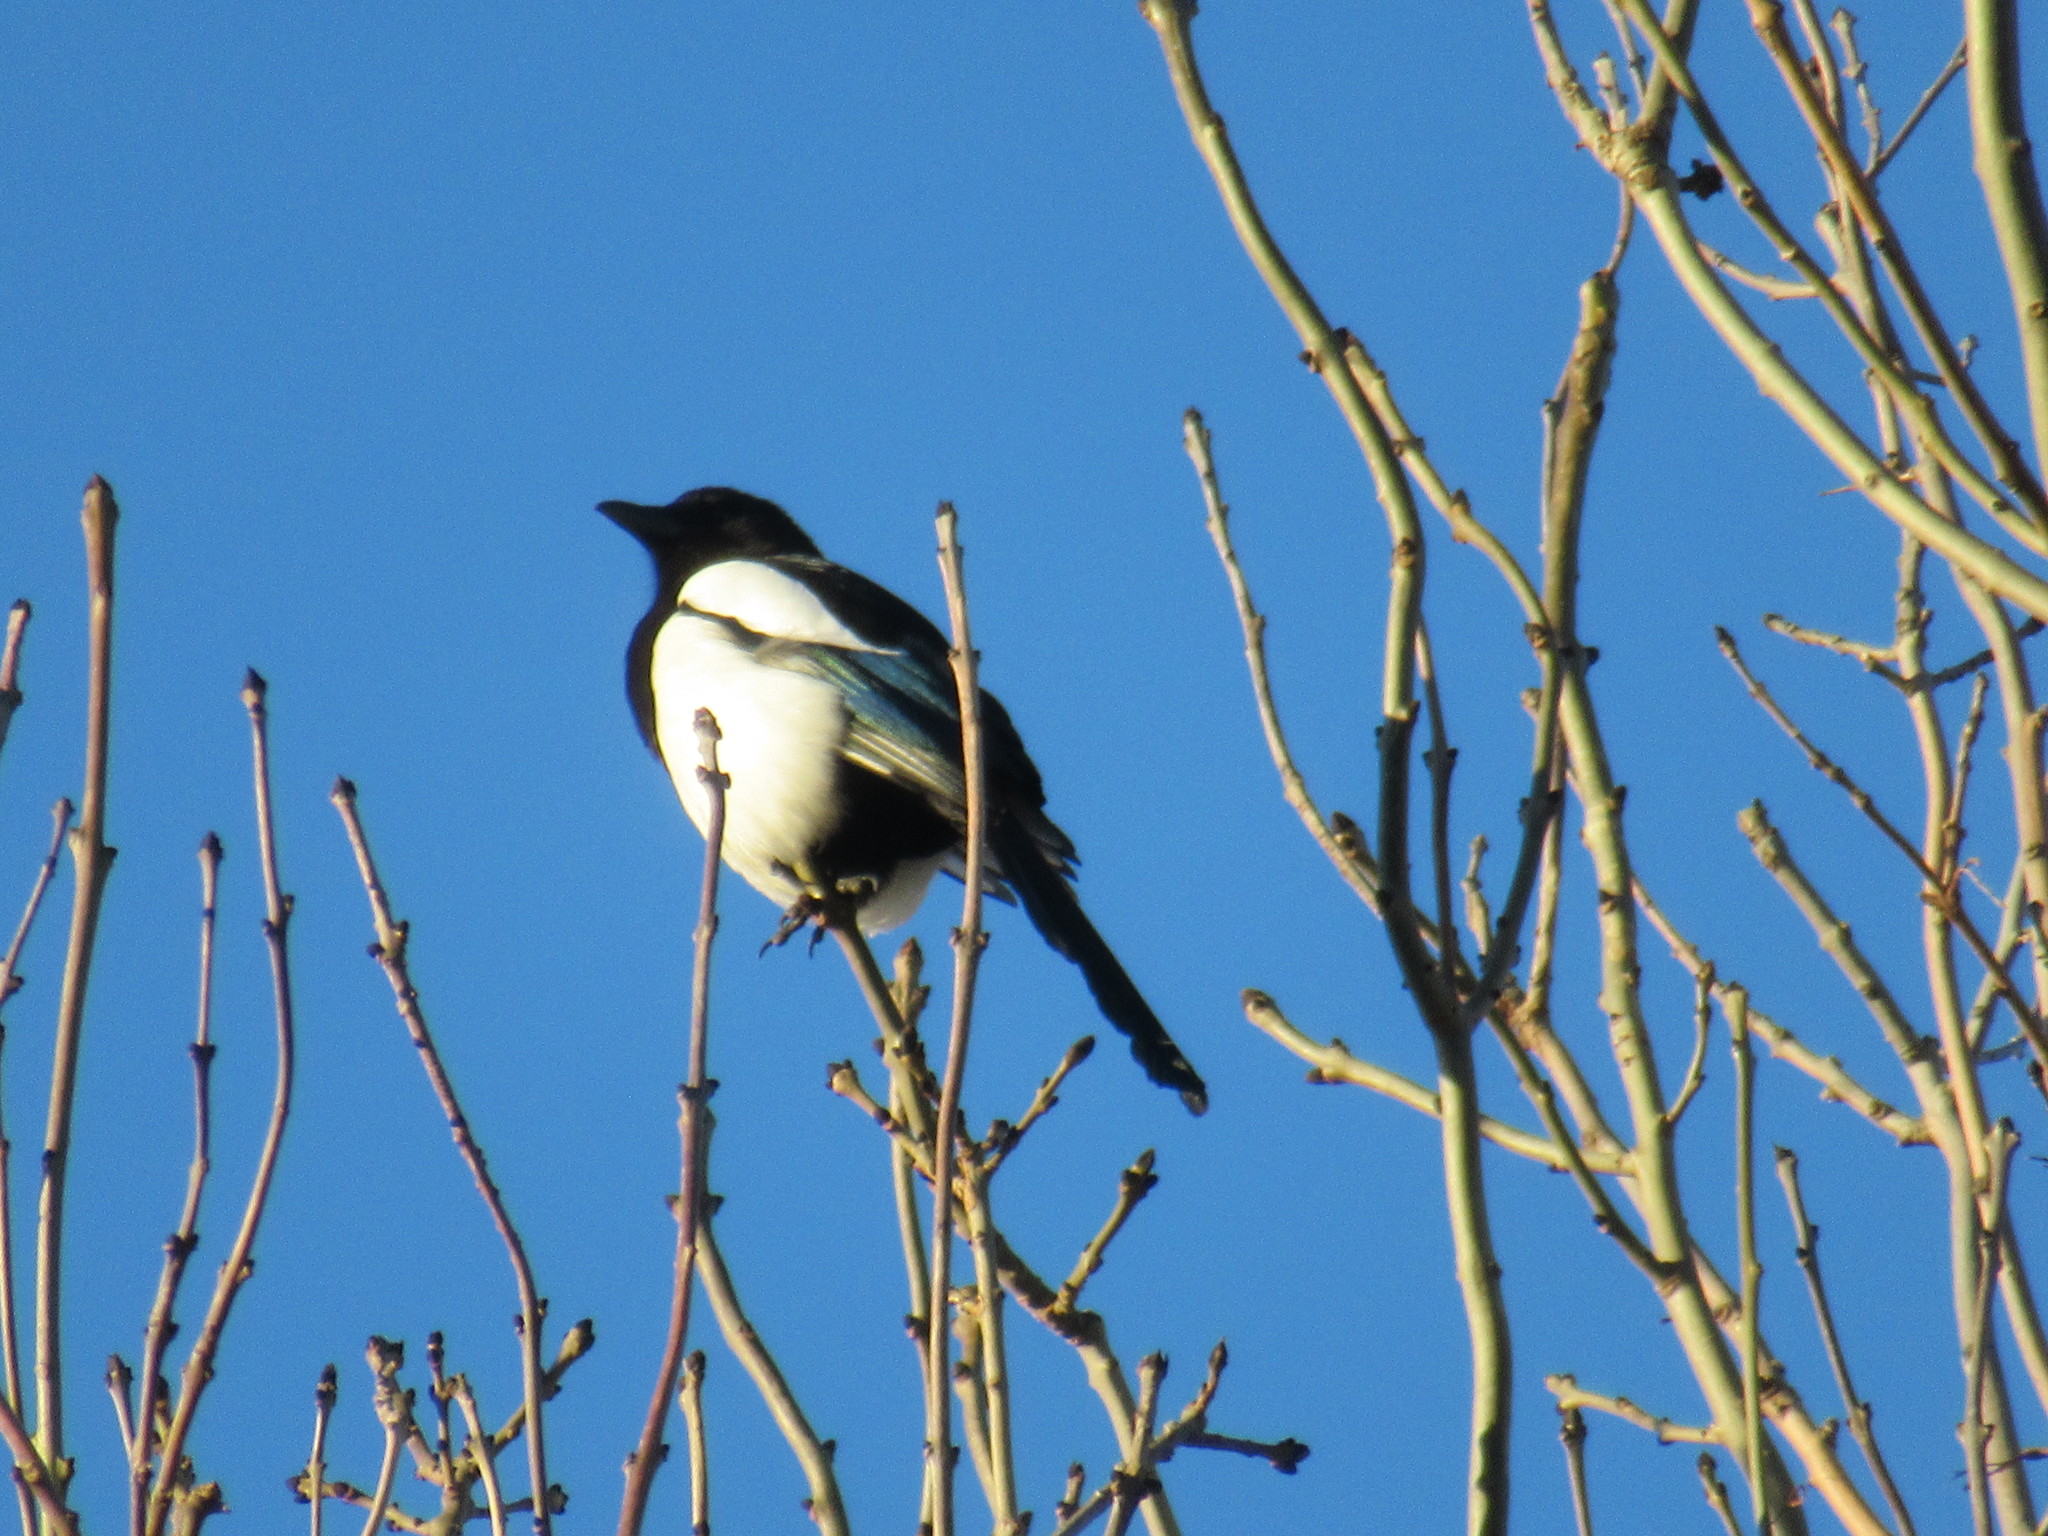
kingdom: Animalia
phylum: Chordata
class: Aves
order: Passeriformes
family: Corvidae
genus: Pica
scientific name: Pica pica
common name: Eurasian magpie
